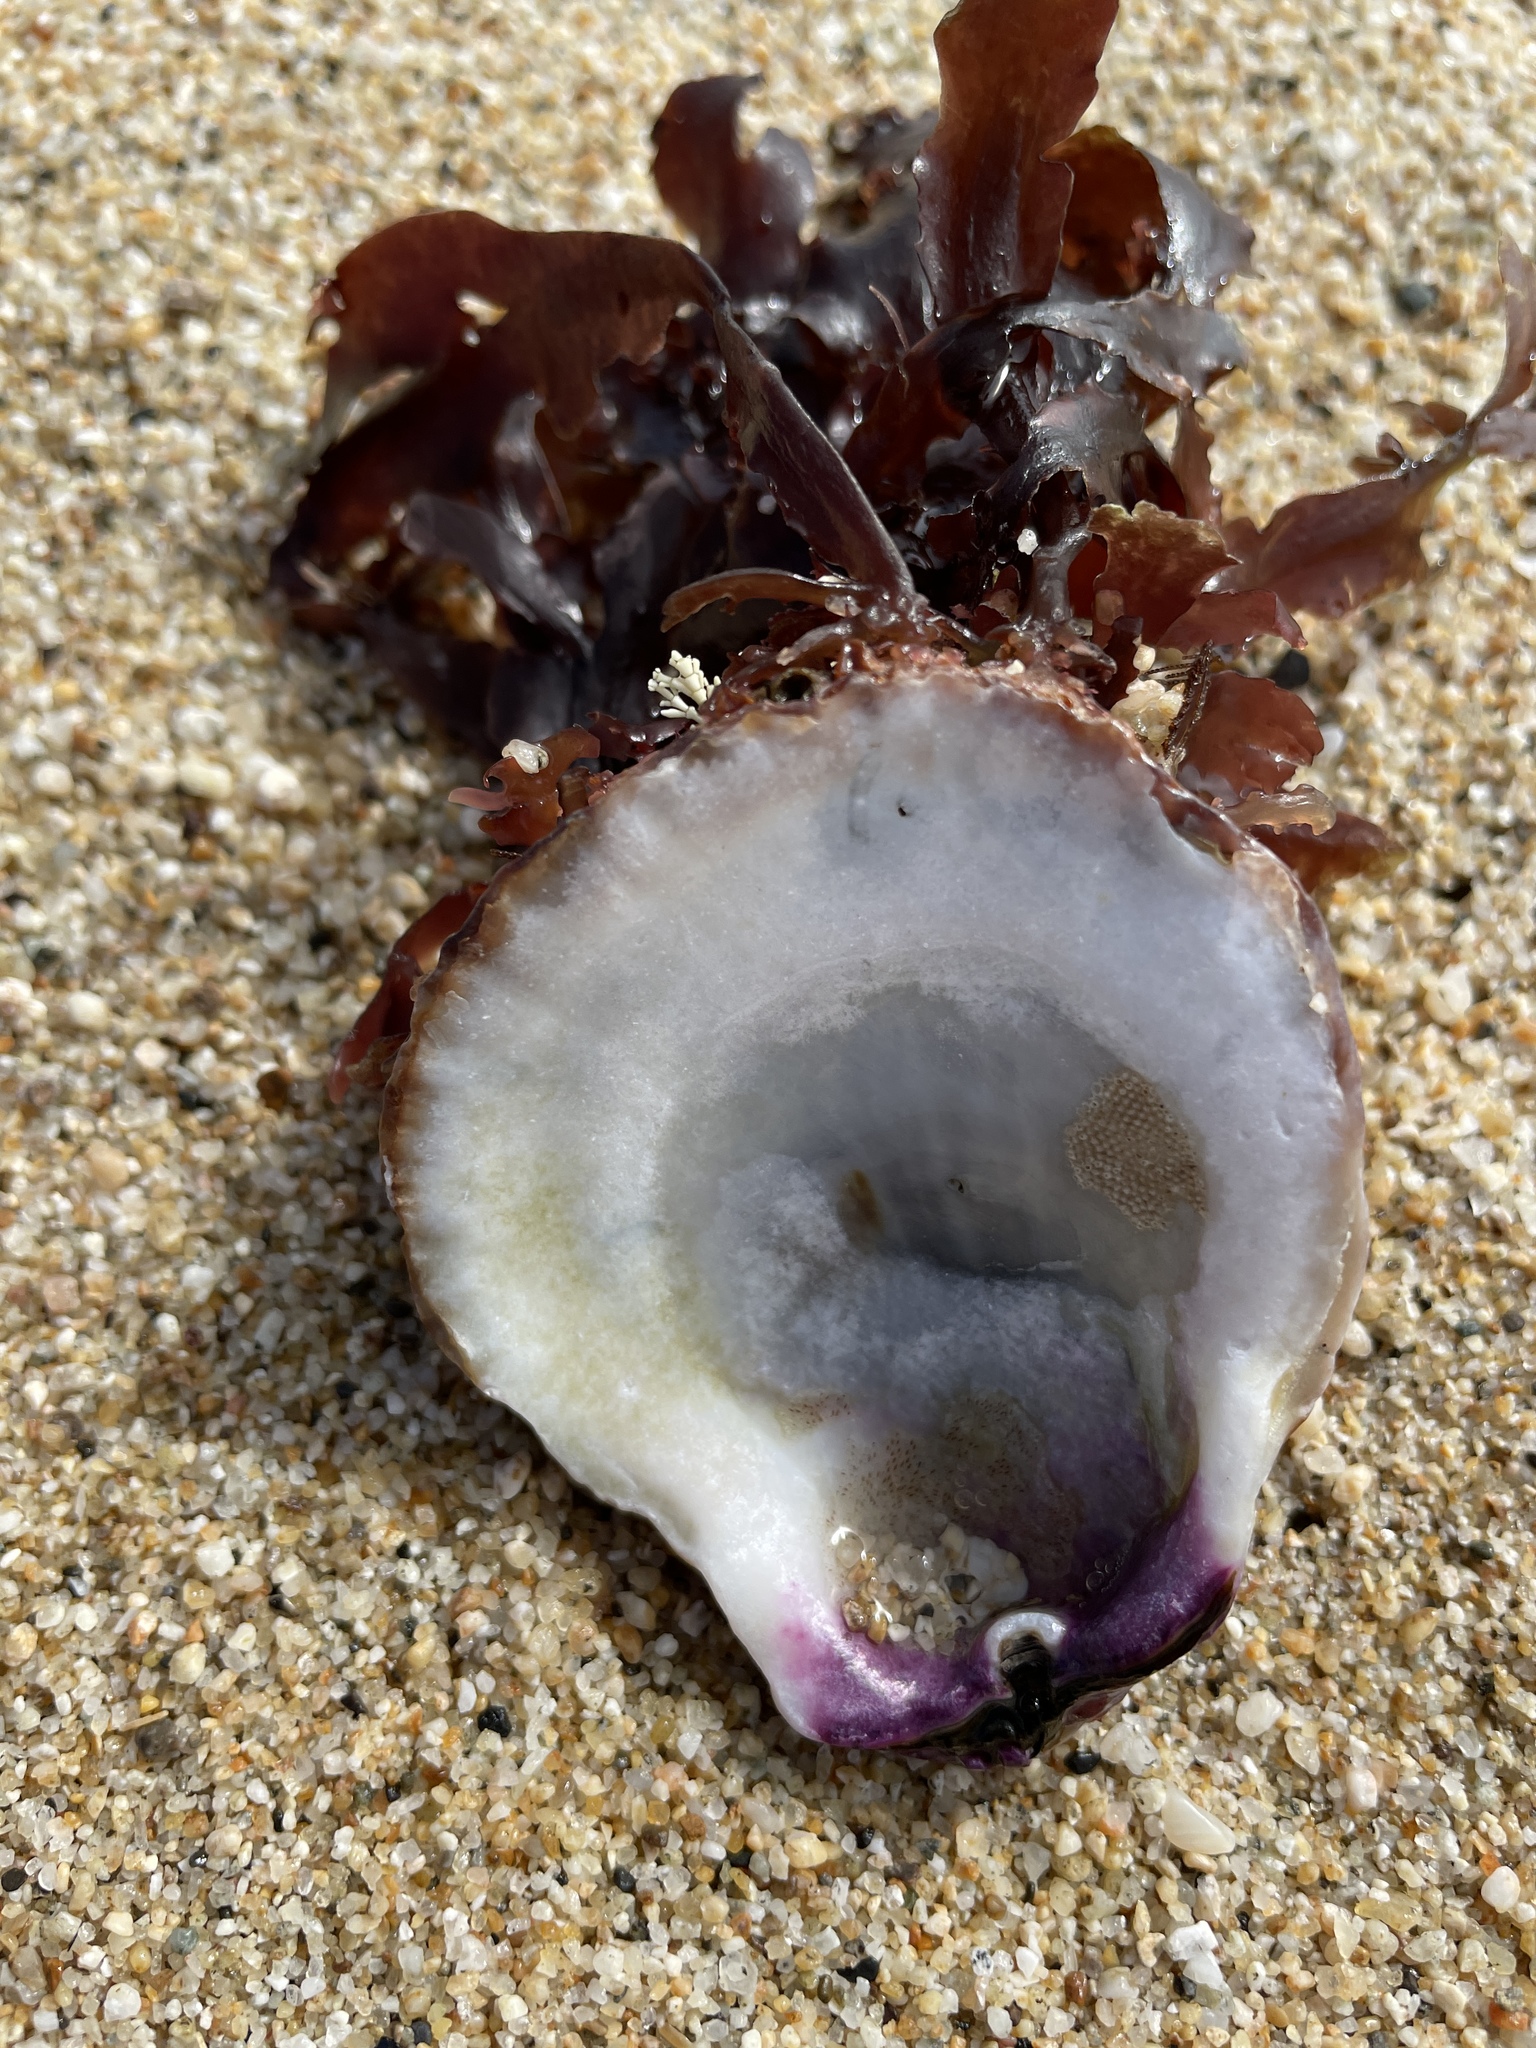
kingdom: Animalia
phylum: Mollusca
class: Bivalvia
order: Pectinida
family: Pectinidae
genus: Crassadoma
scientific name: Crassadoma gigantea
